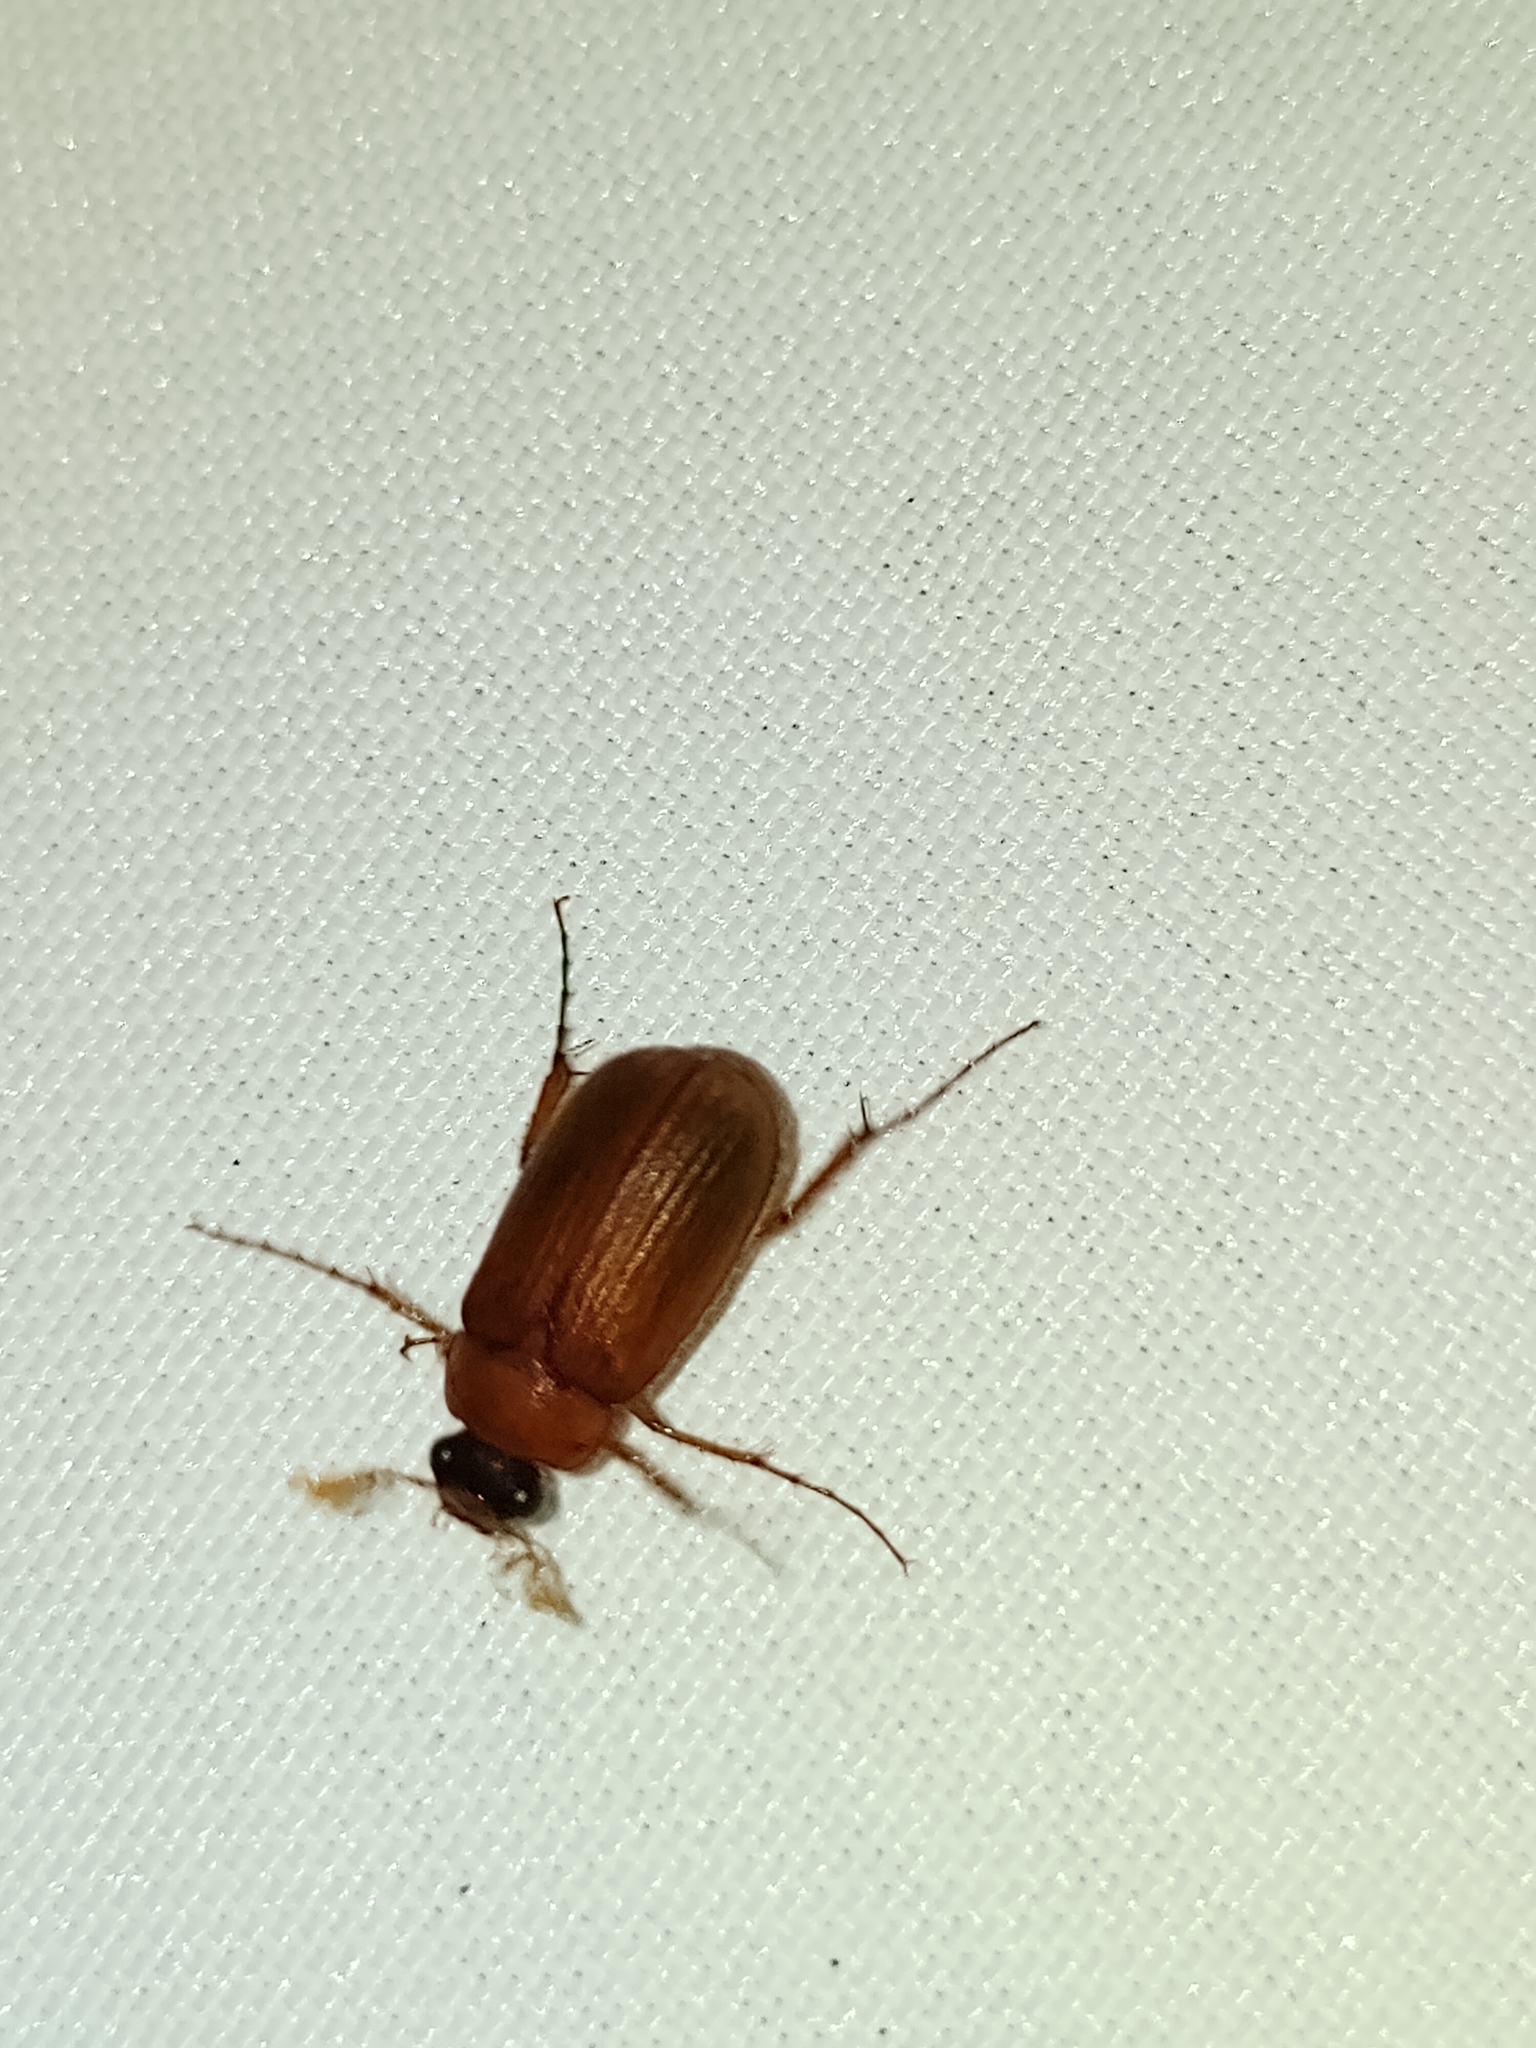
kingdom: Animalia
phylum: Arthropoda
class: Insecta
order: Coleoptera
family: Scarabaeidae
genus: Serica
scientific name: Serica brunnea
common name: Brown chafer
